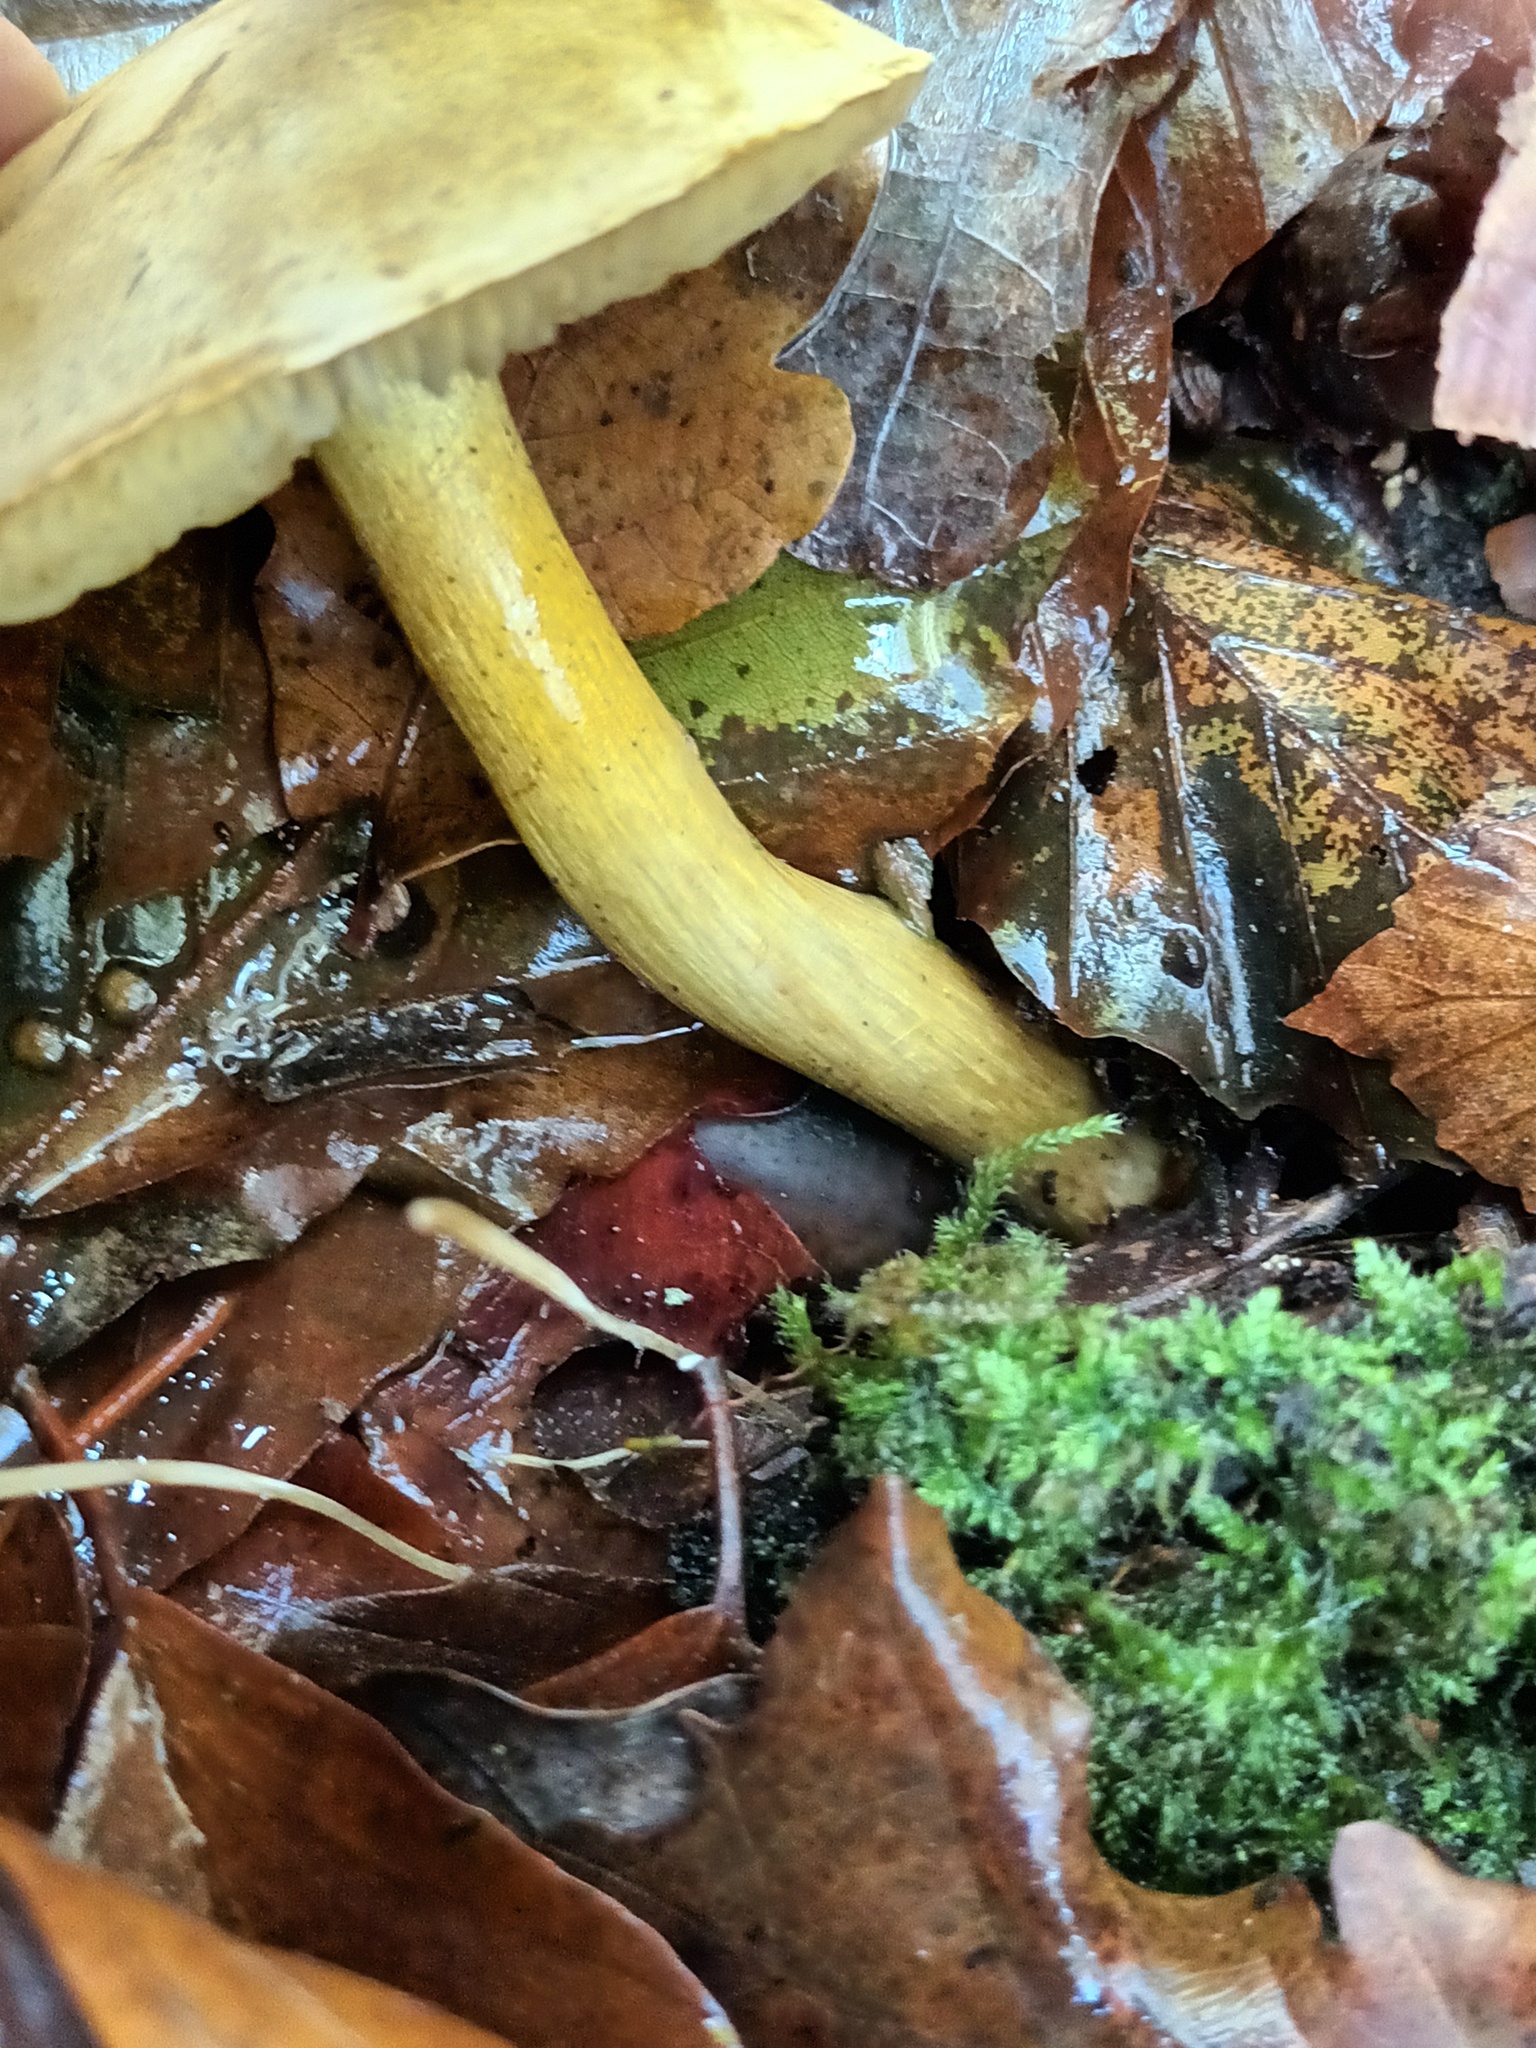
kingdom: Fungi
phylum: Basidiomycota
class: Agaricomycetes
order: Agaricales
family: Tricholomataceae
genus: Tricholoma
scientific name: Tricholoma sulphureum
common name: Stinky knight
